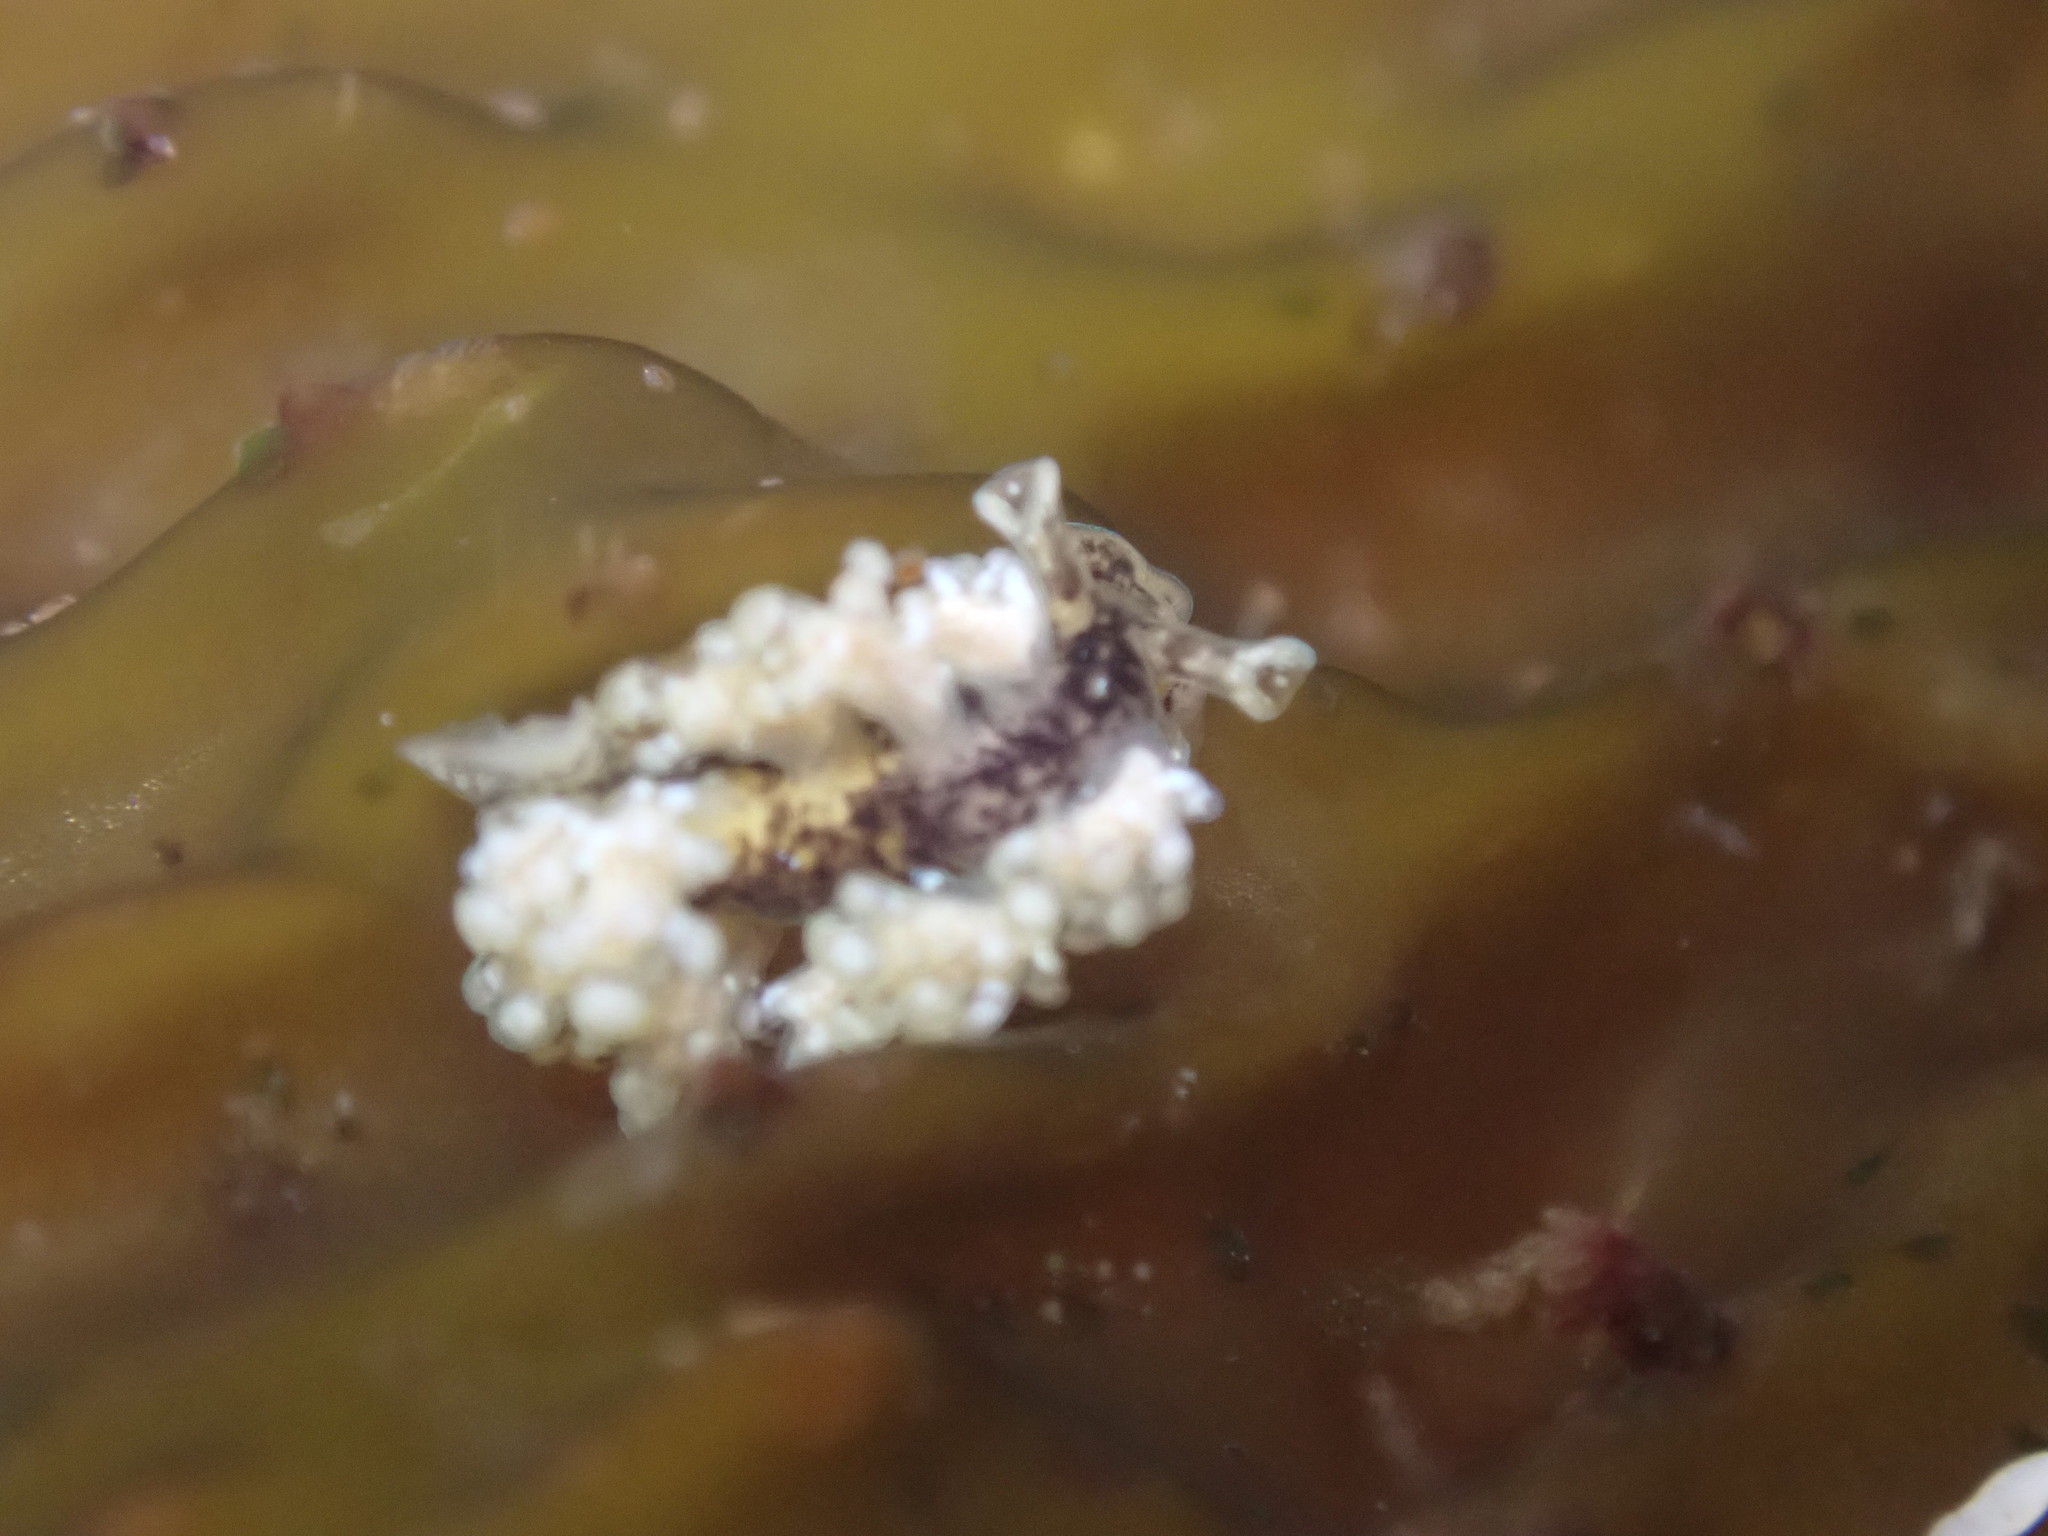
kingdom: Animalia
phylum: Mollusca
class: Gastropoda
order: Nudibranchia
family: Dotidae
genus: Doto
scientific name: Doto kya
